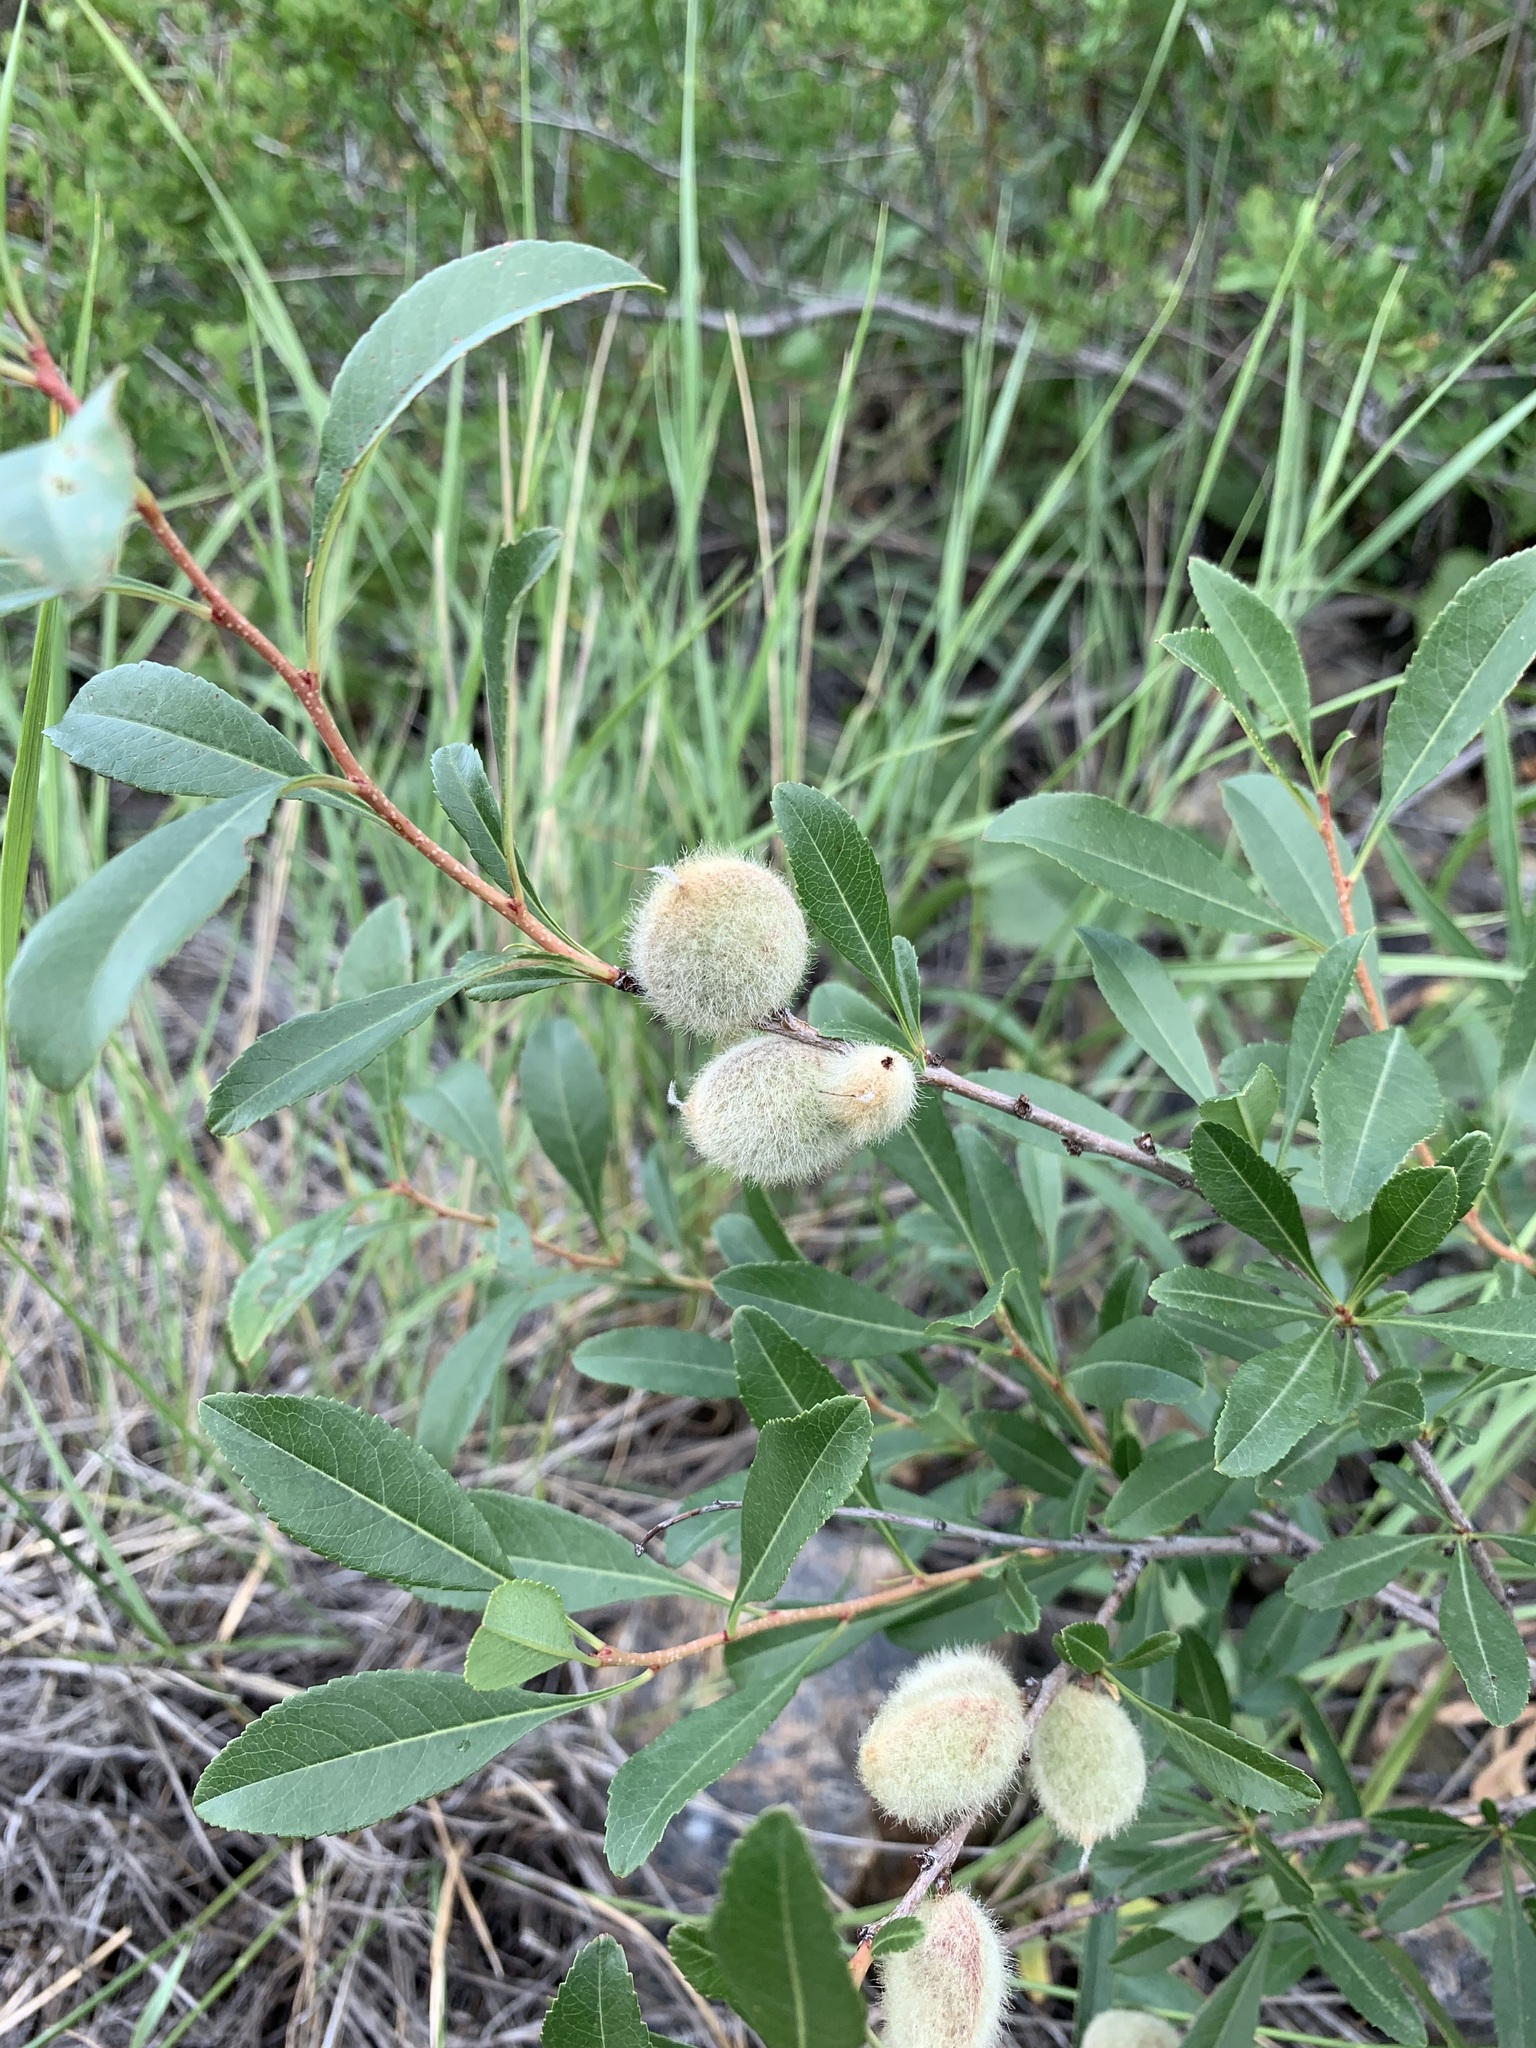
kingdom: Plantae
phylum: Tracheophyta
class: Magnoliopsida
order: Rosales
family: Rosaceae
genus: Prunus
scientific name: Prunus tenella
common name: Dwarf russian almond
